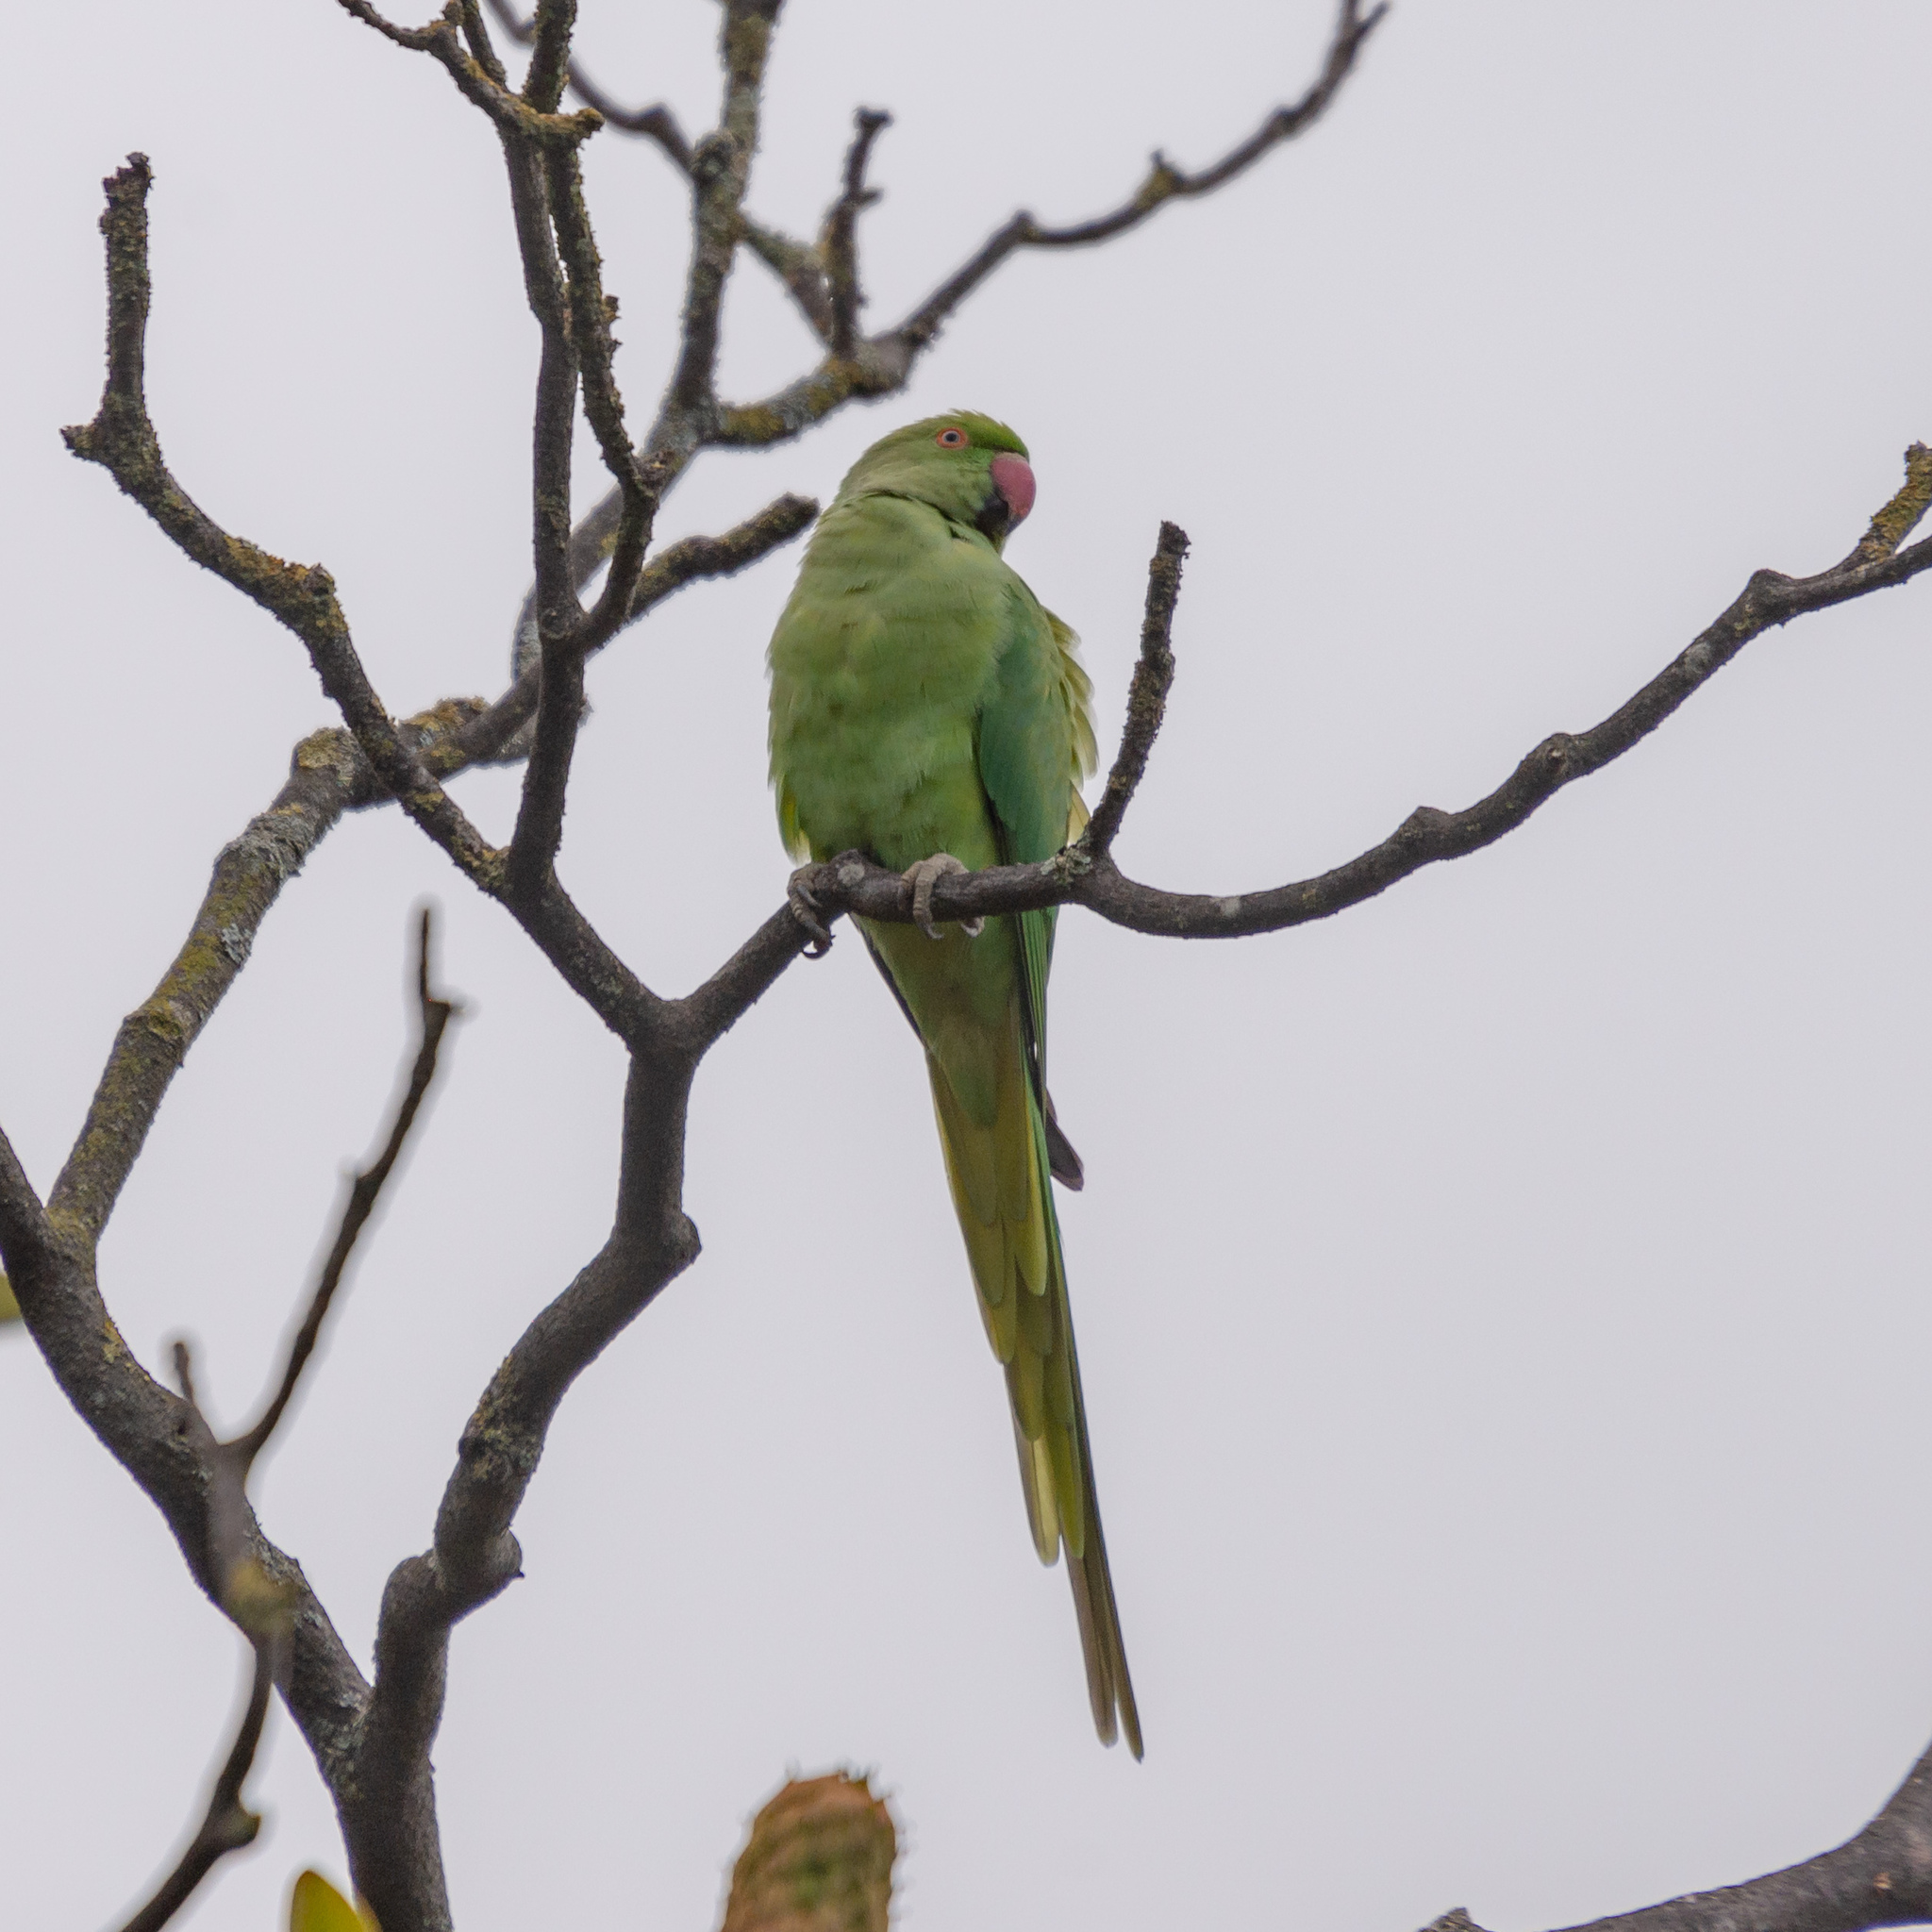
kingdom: Animalia
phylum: Chordata
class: Aves
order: Psittaciformes
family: Psittacidae
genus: Psittacula
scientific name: Psittacula krameri
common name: Rose-ringed parakeet
